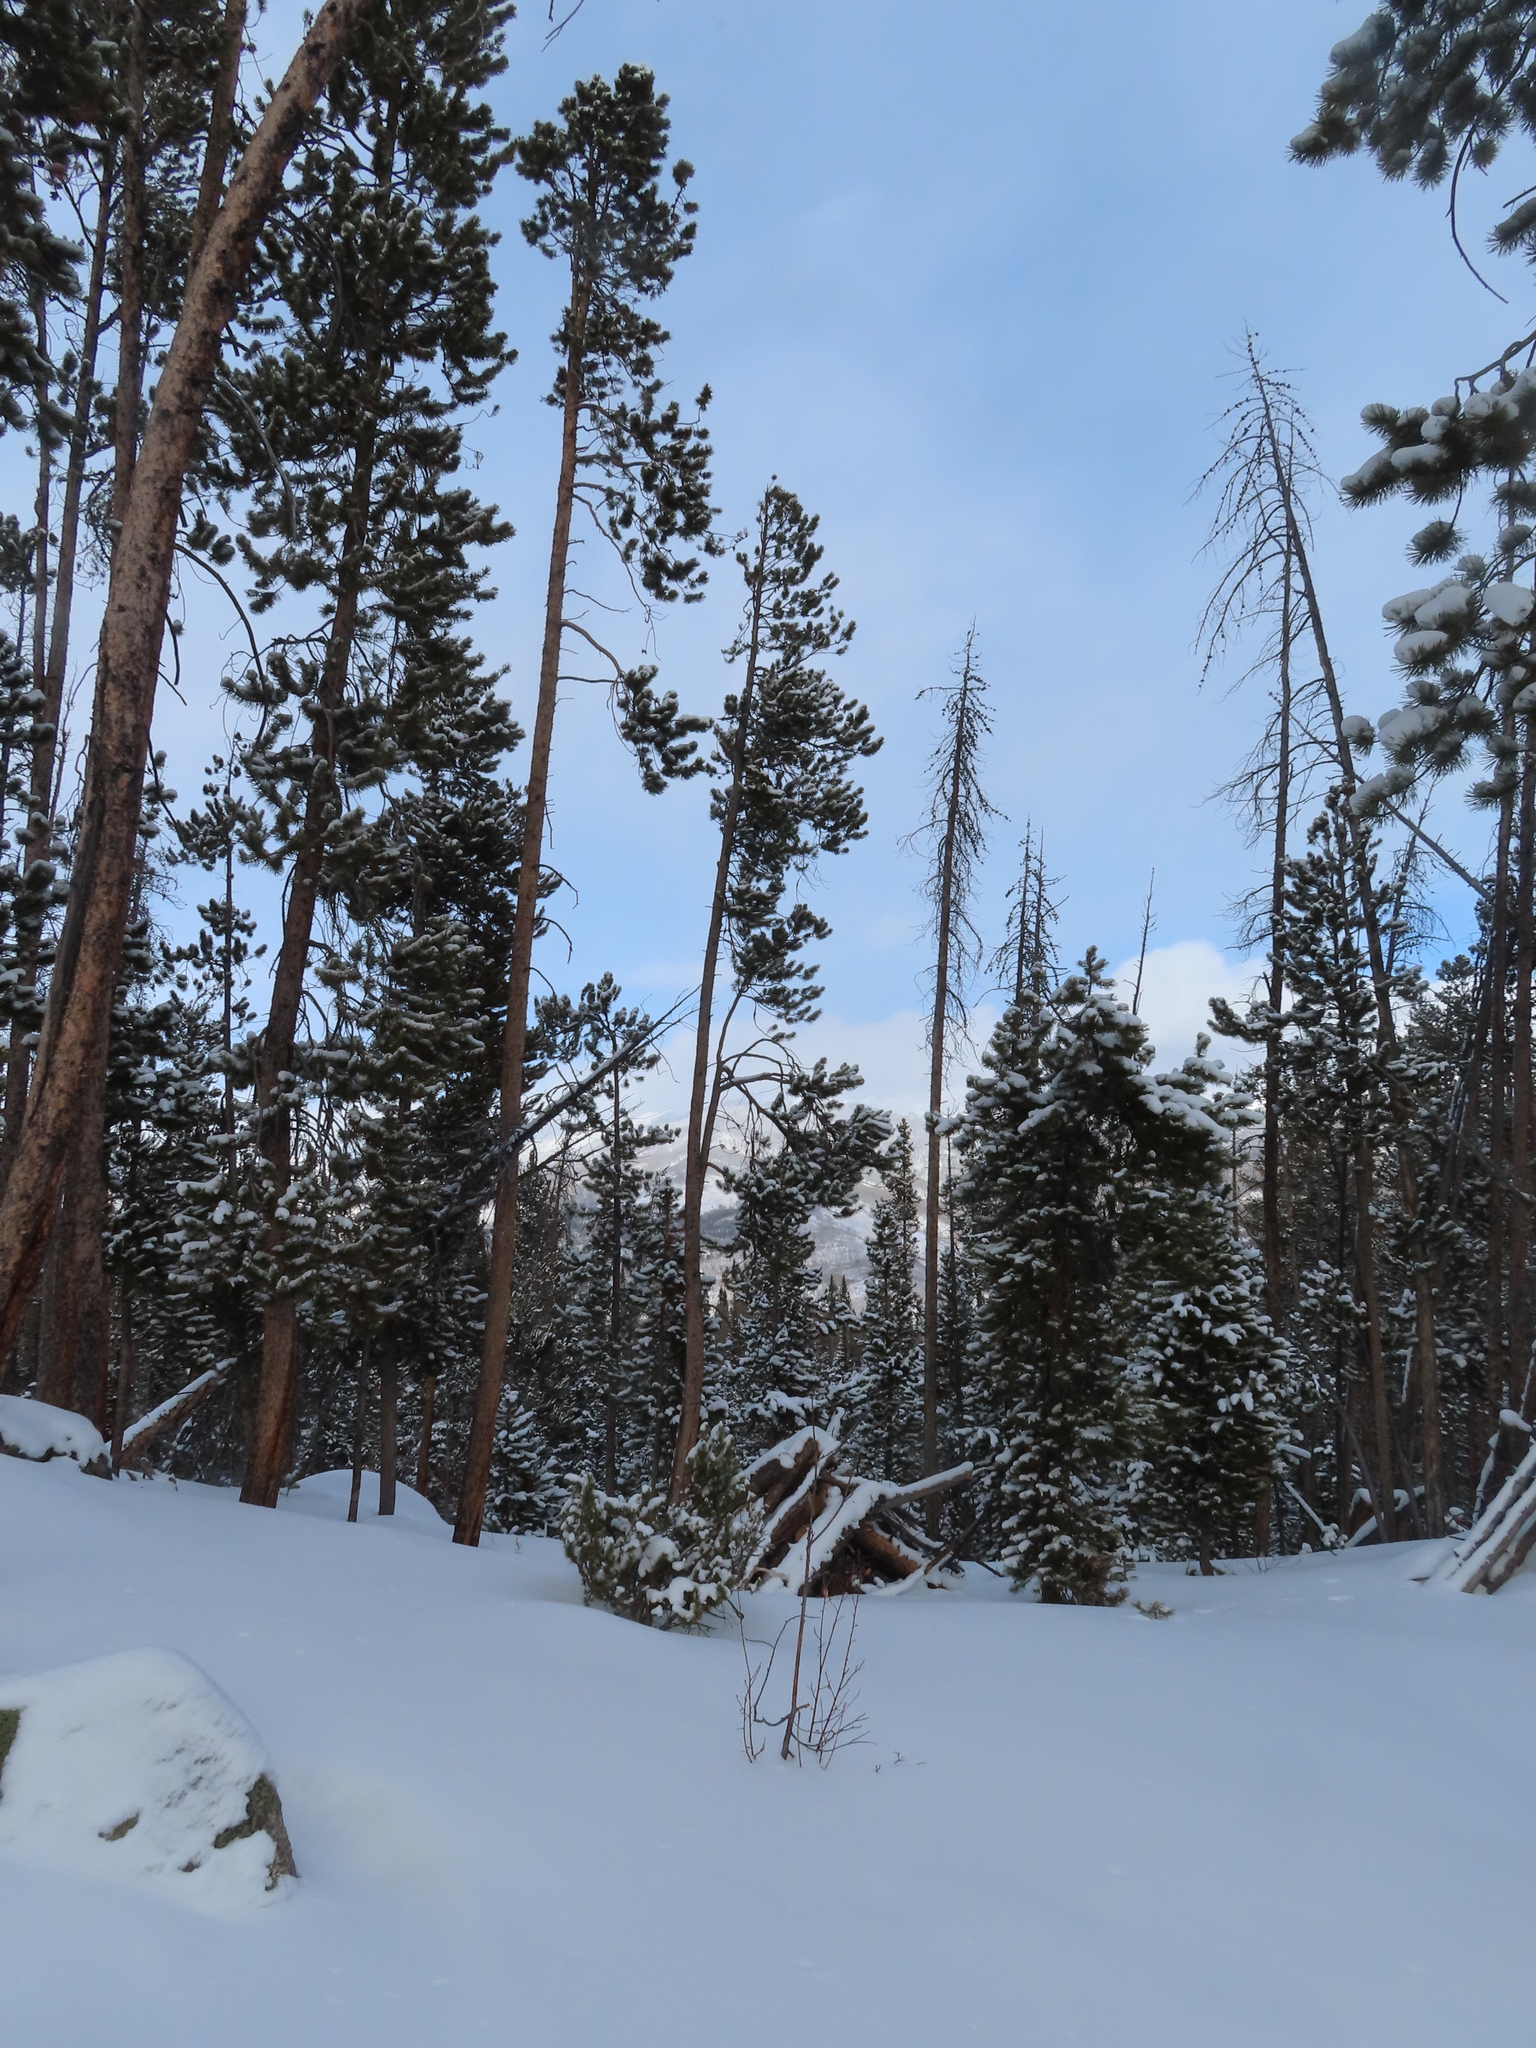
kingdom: Plantae
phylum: Tracheophyta
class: Pinopsida
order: Pinales
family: Pinaceae
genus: Pinus
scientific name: Pinus contorta
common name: Lodgepole pine
